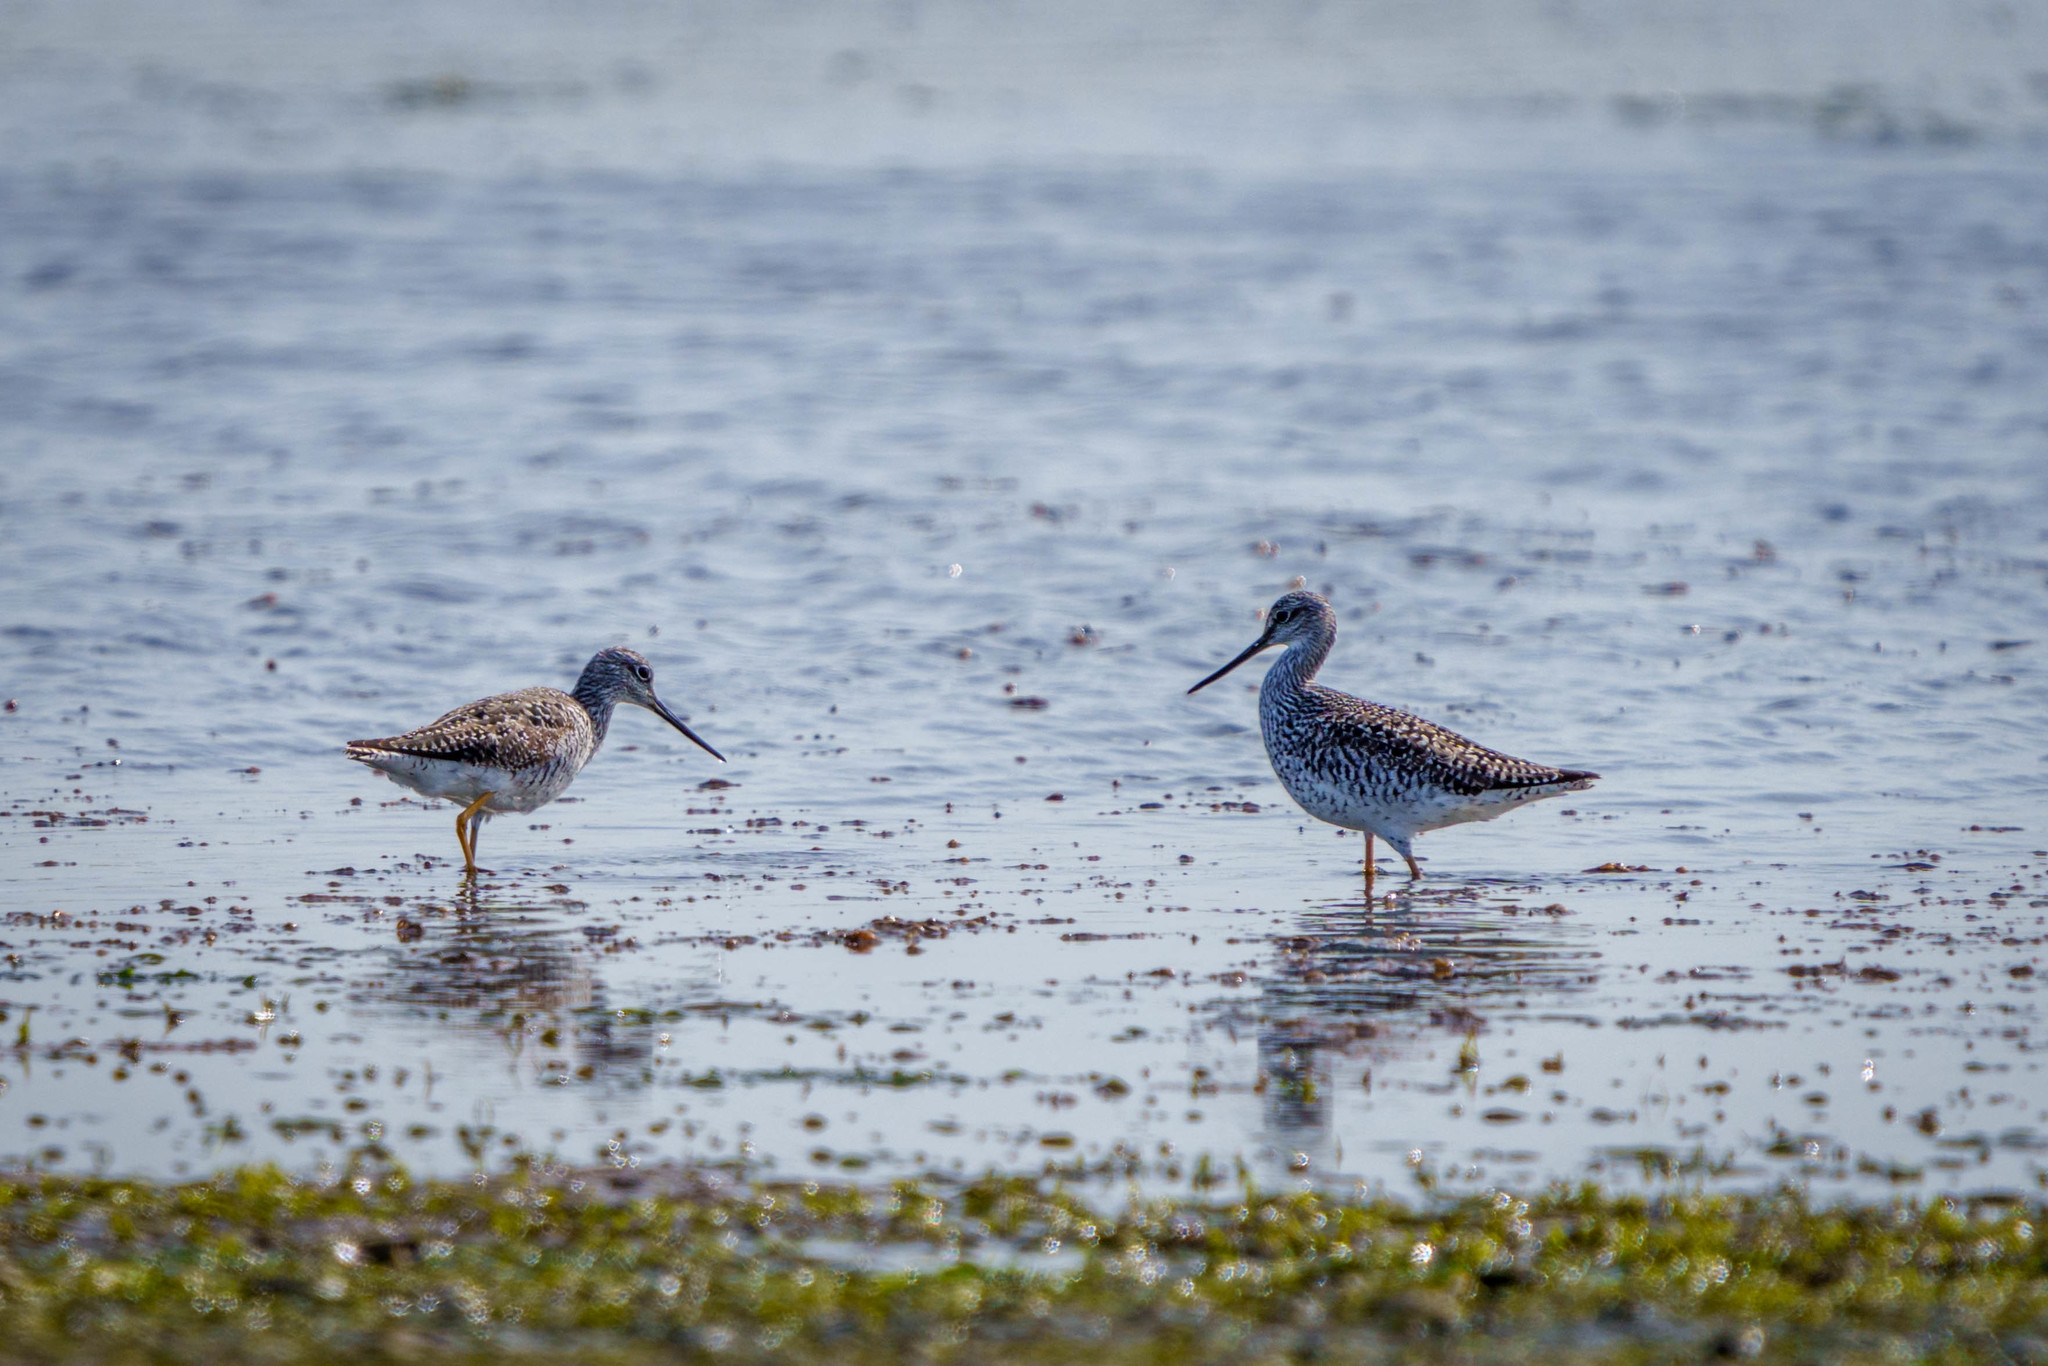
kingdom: Animalia
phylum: Chordata
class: Aves
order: Charadriiformes
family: Scolopacidae
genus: Tringa
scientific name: Tringa melanoleuca
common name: Greater yellowlegs
